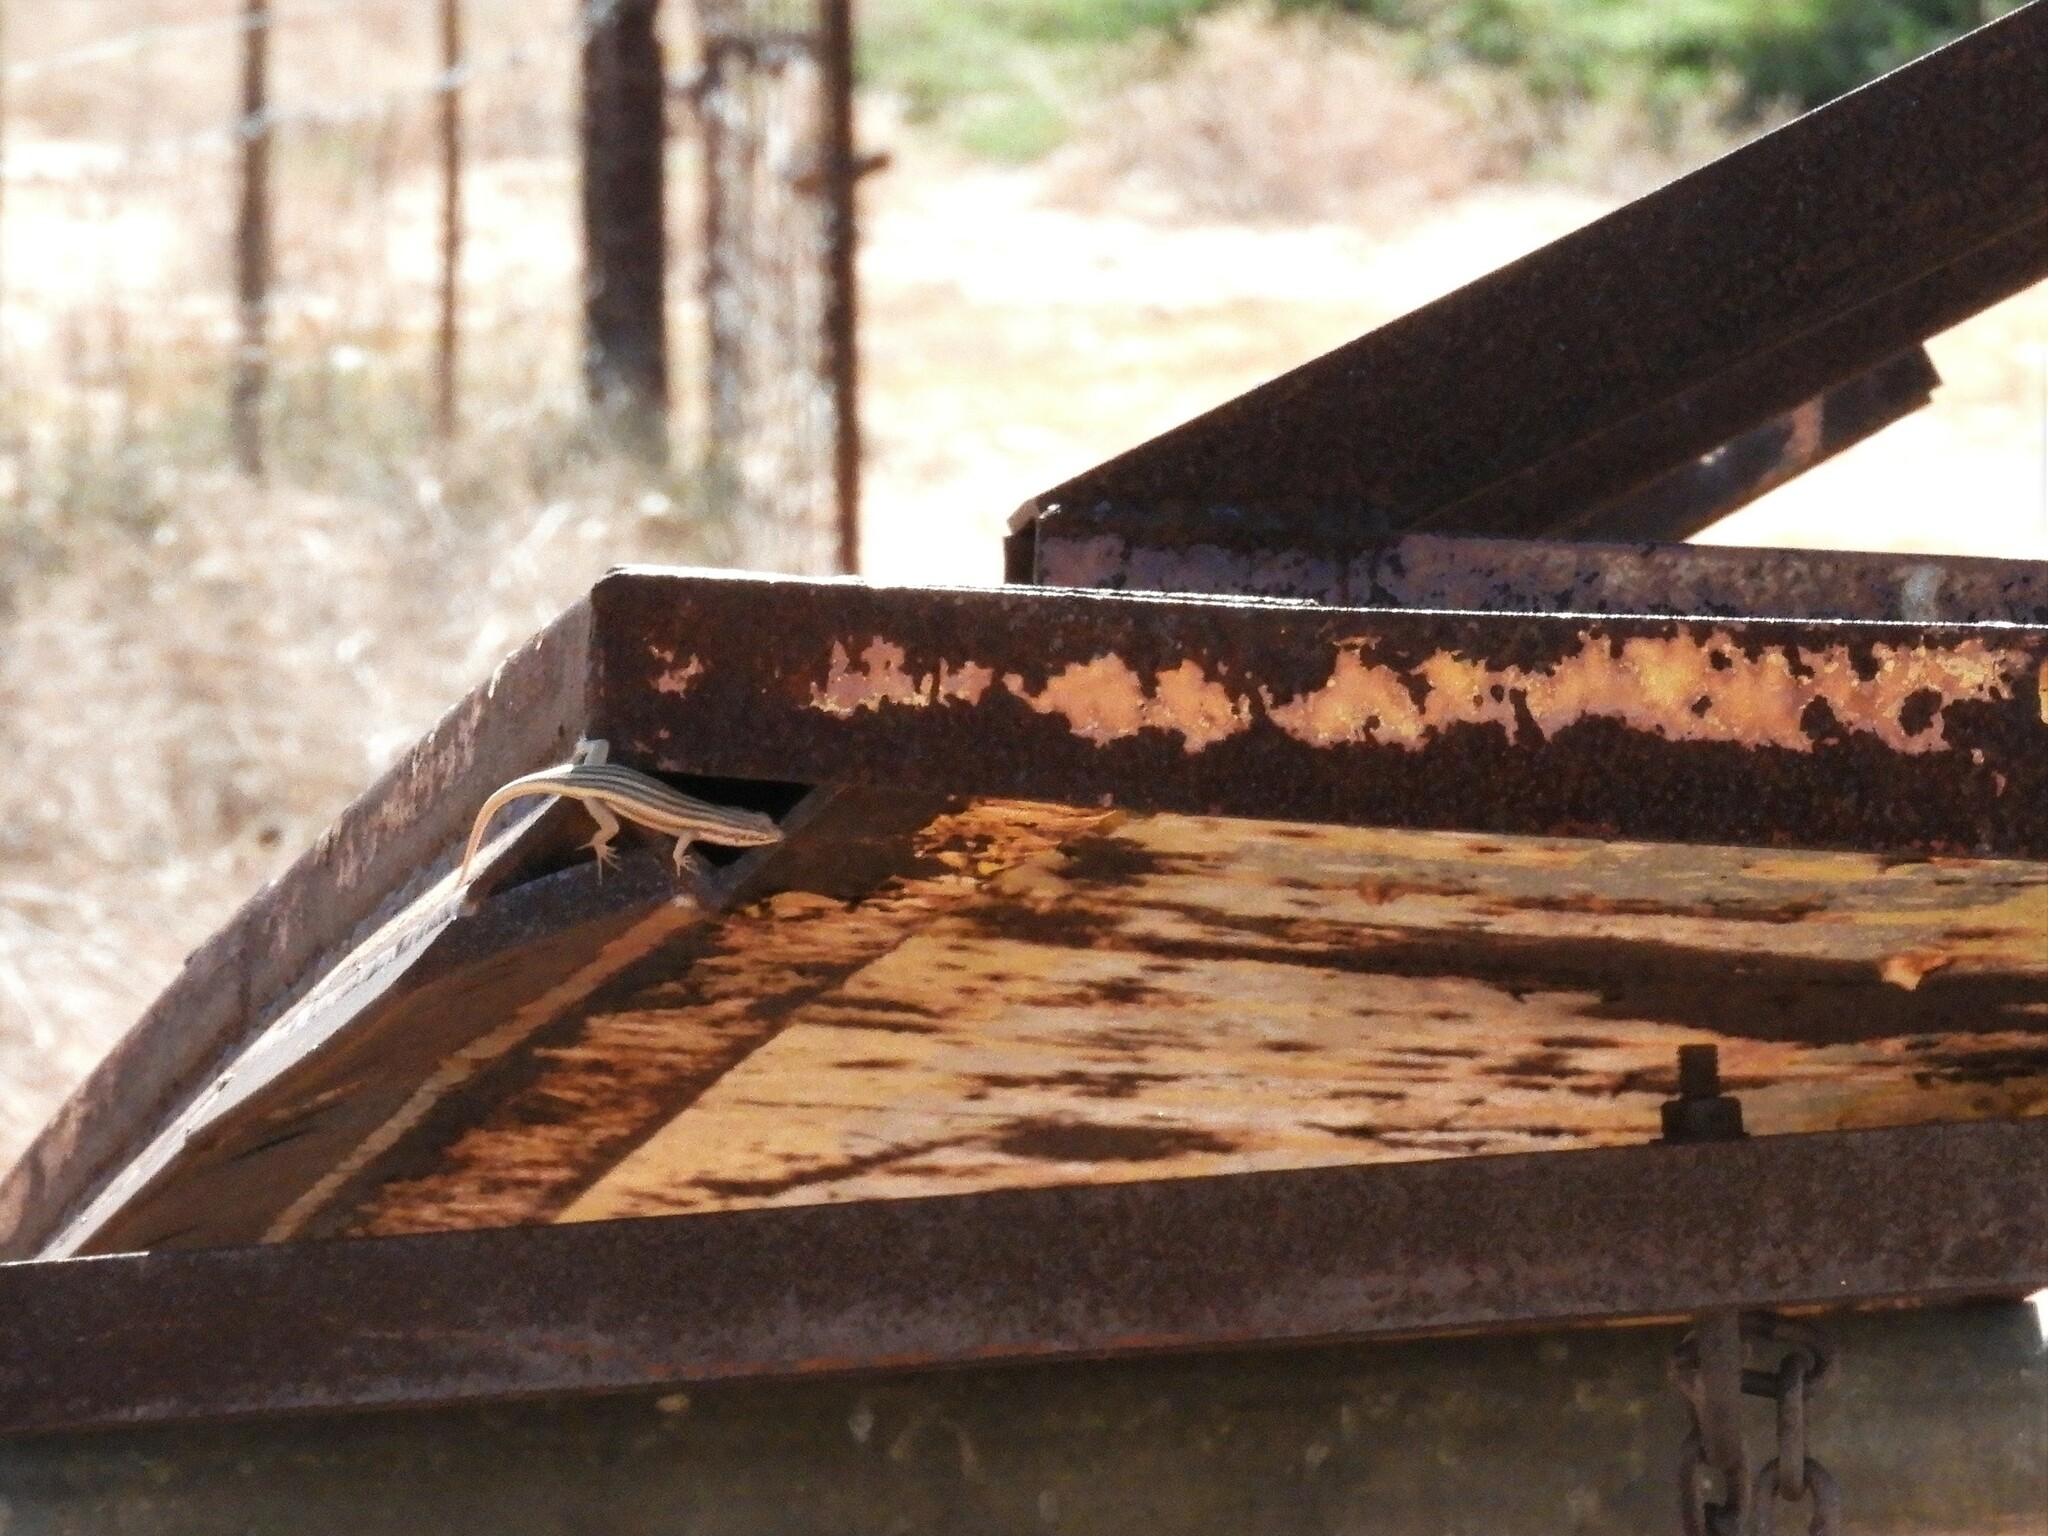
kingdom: Animalia
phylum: Chordata
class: Squamata
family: Scincidae
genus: Trachylepis
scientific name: Trachylepis sulcata
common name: Western rock skink
